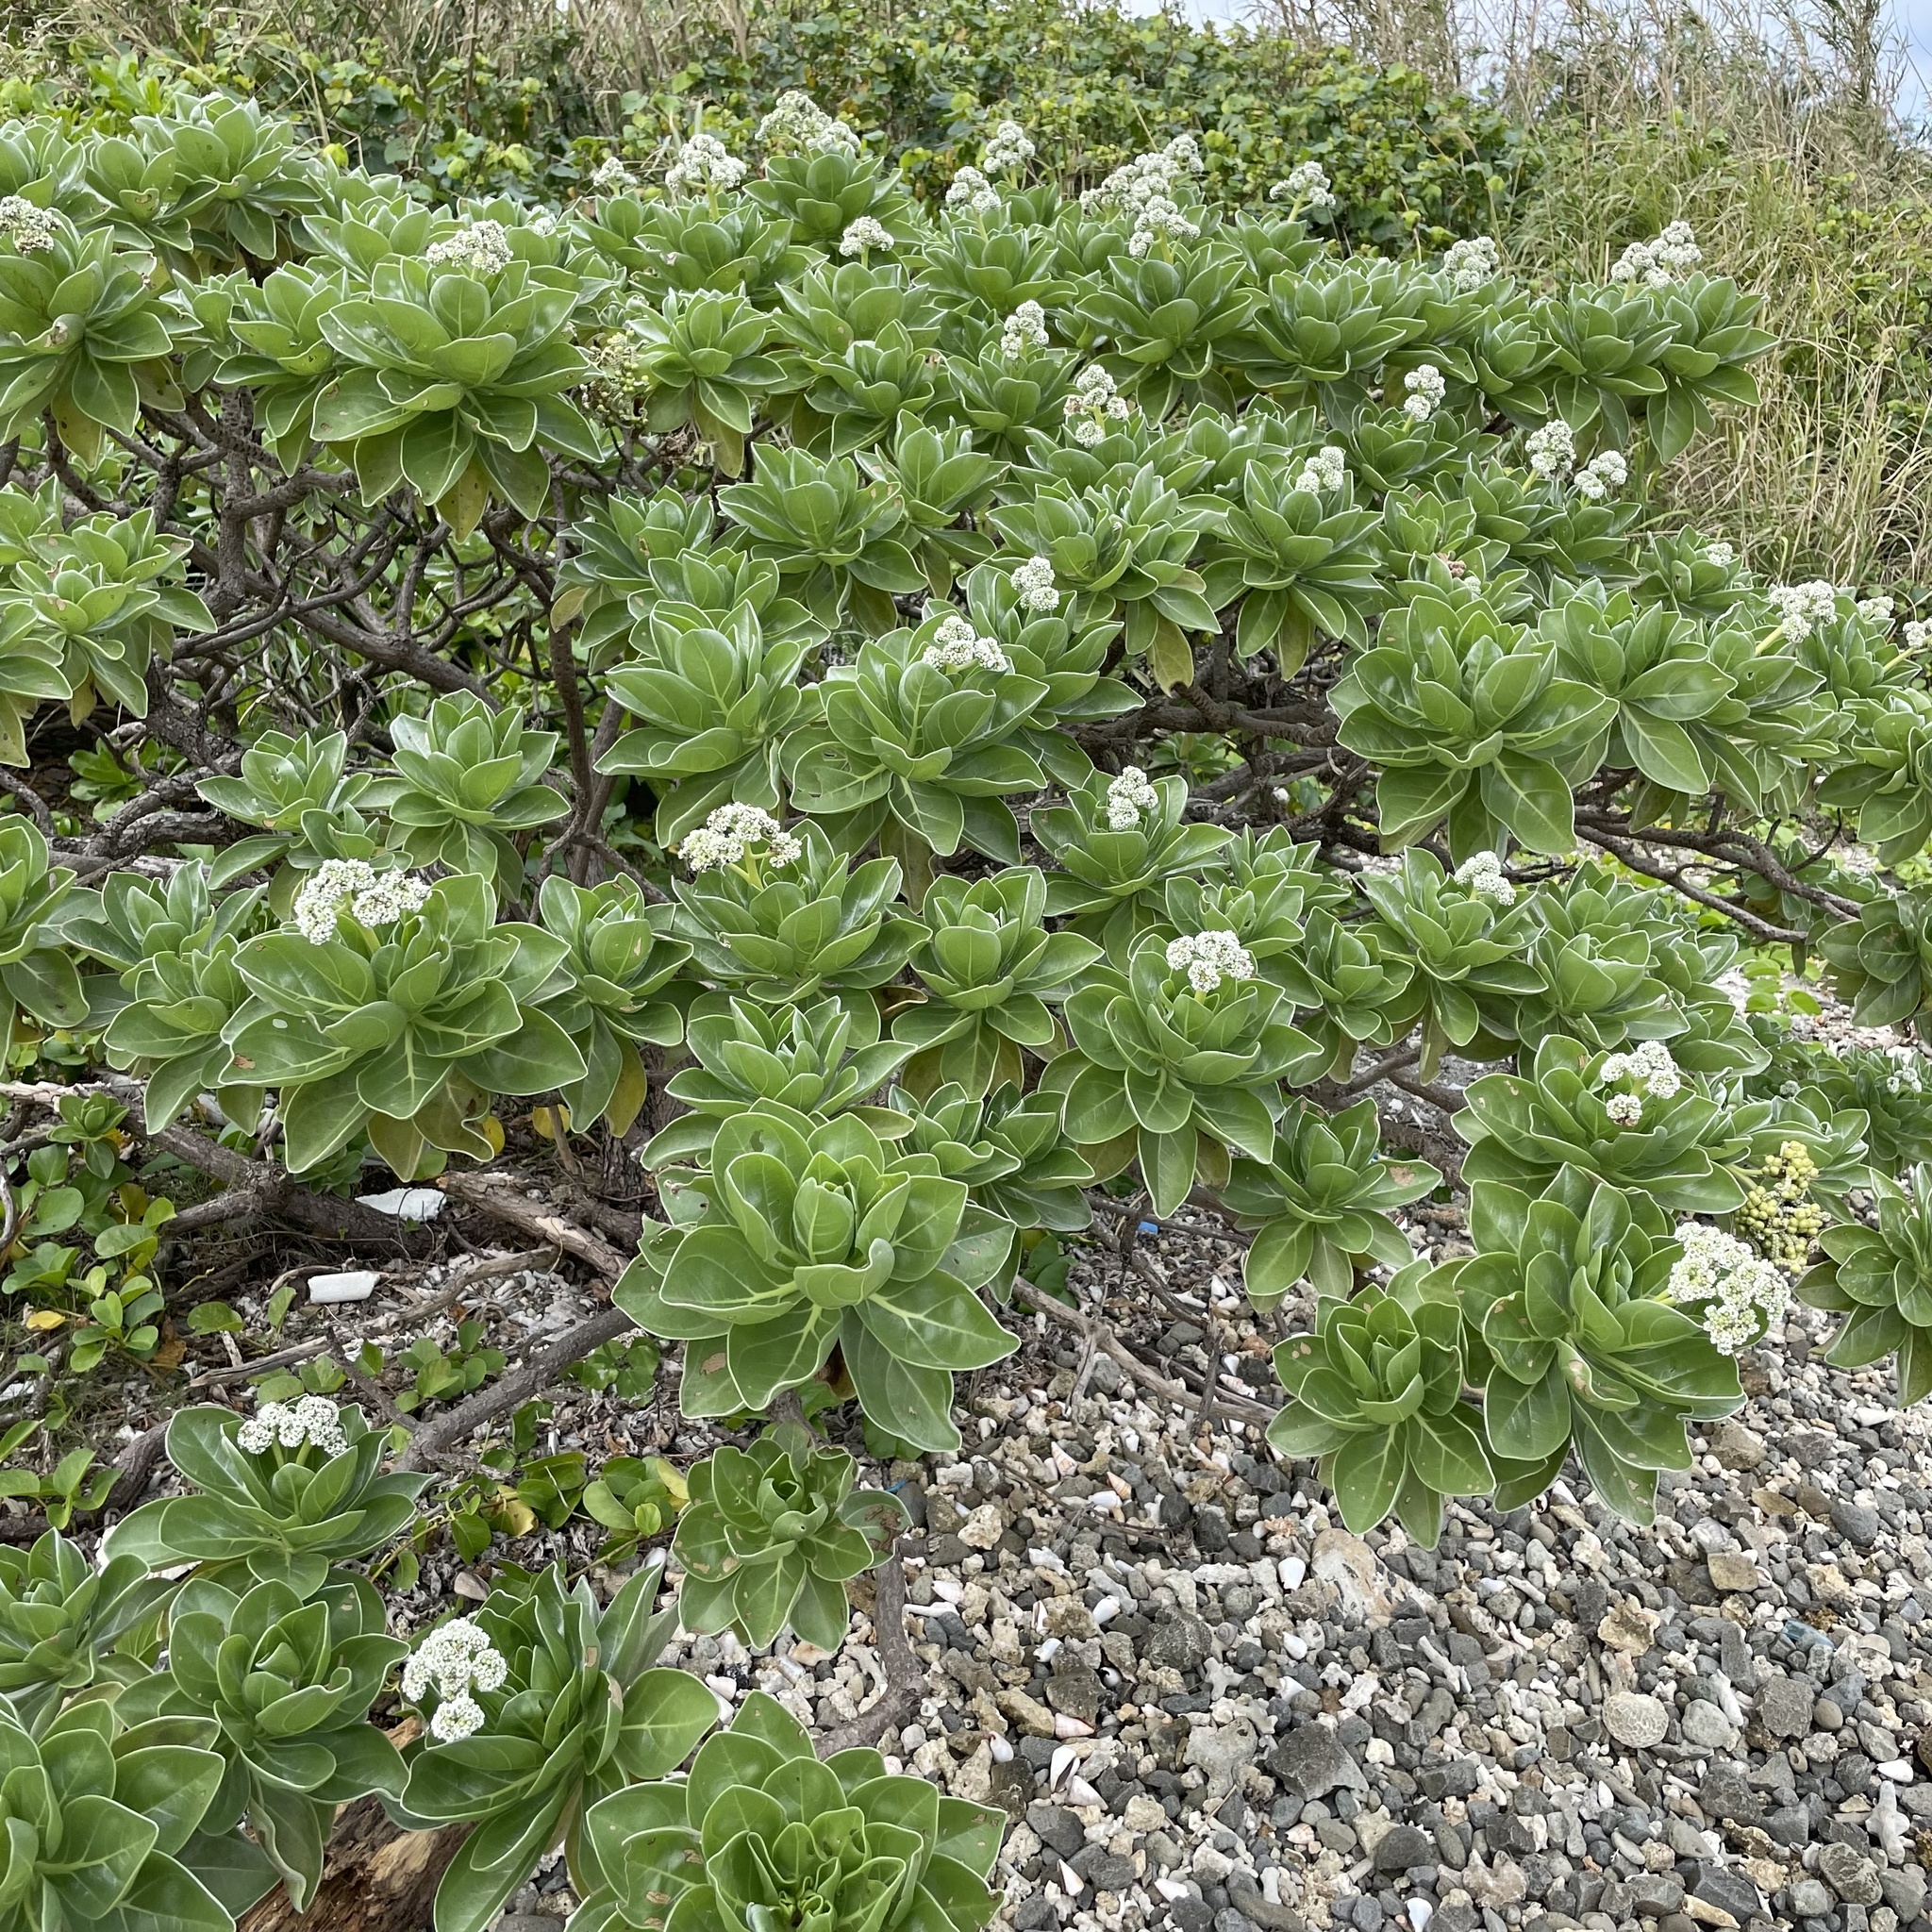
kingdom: Plantae
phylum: Tracheophyta
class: Magnoliopsida
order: Boraginales
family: Heliotropiaceae
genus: Heliotropium
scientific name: Heliotropium velutinum
